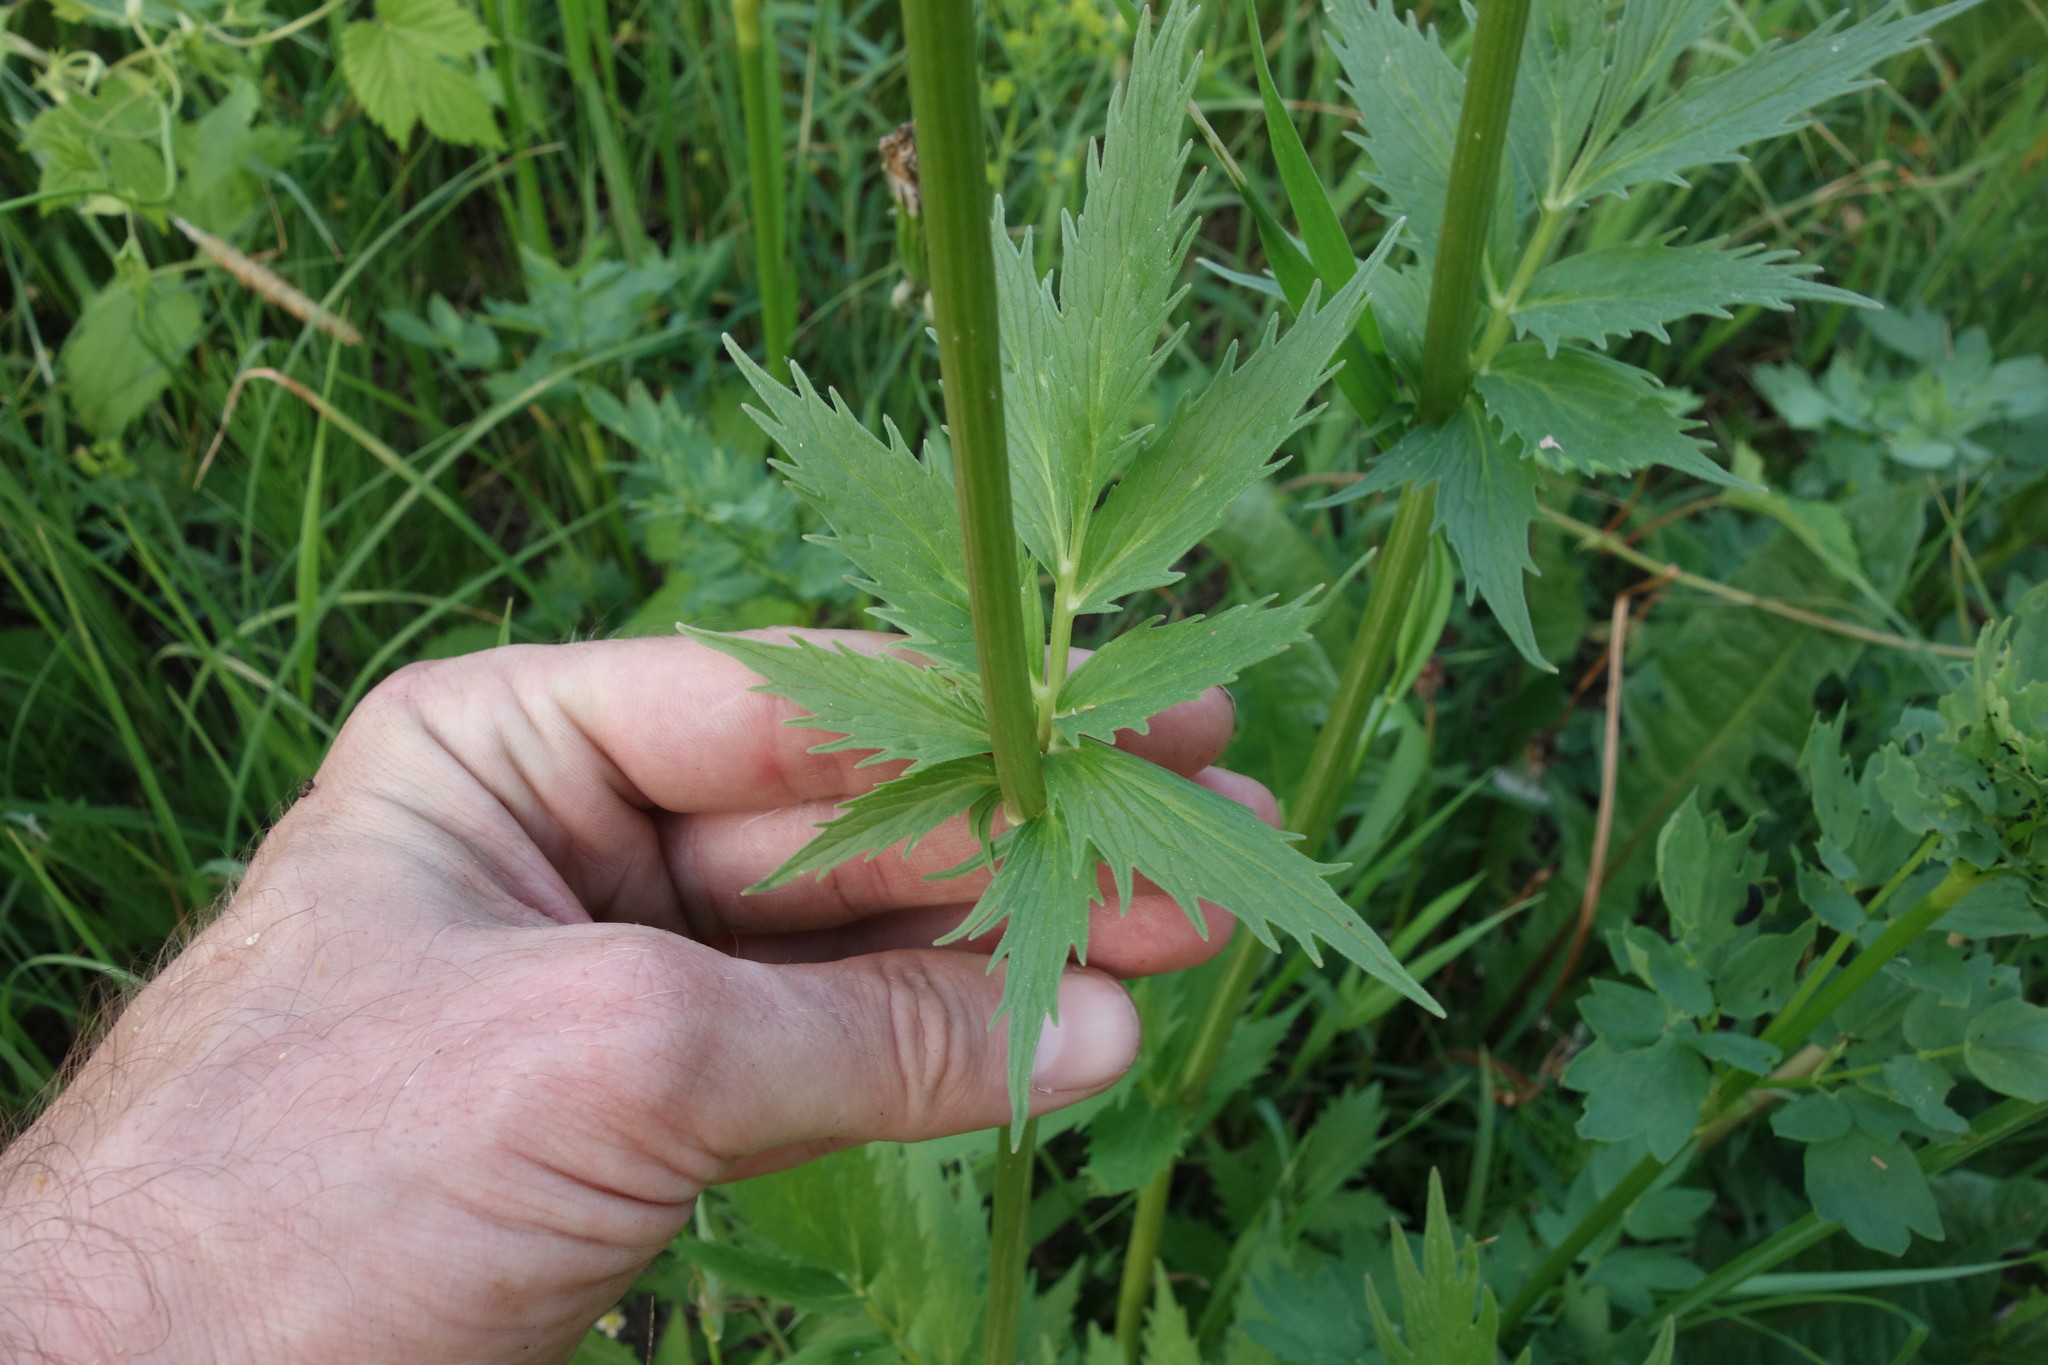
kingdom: Plantae
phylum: Tracheophyta
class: Magnoliopsida
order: Dipsacales
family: Caprifoliaceae
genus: Valeriana
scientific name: Valeriana officinalis
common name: Common valerian
